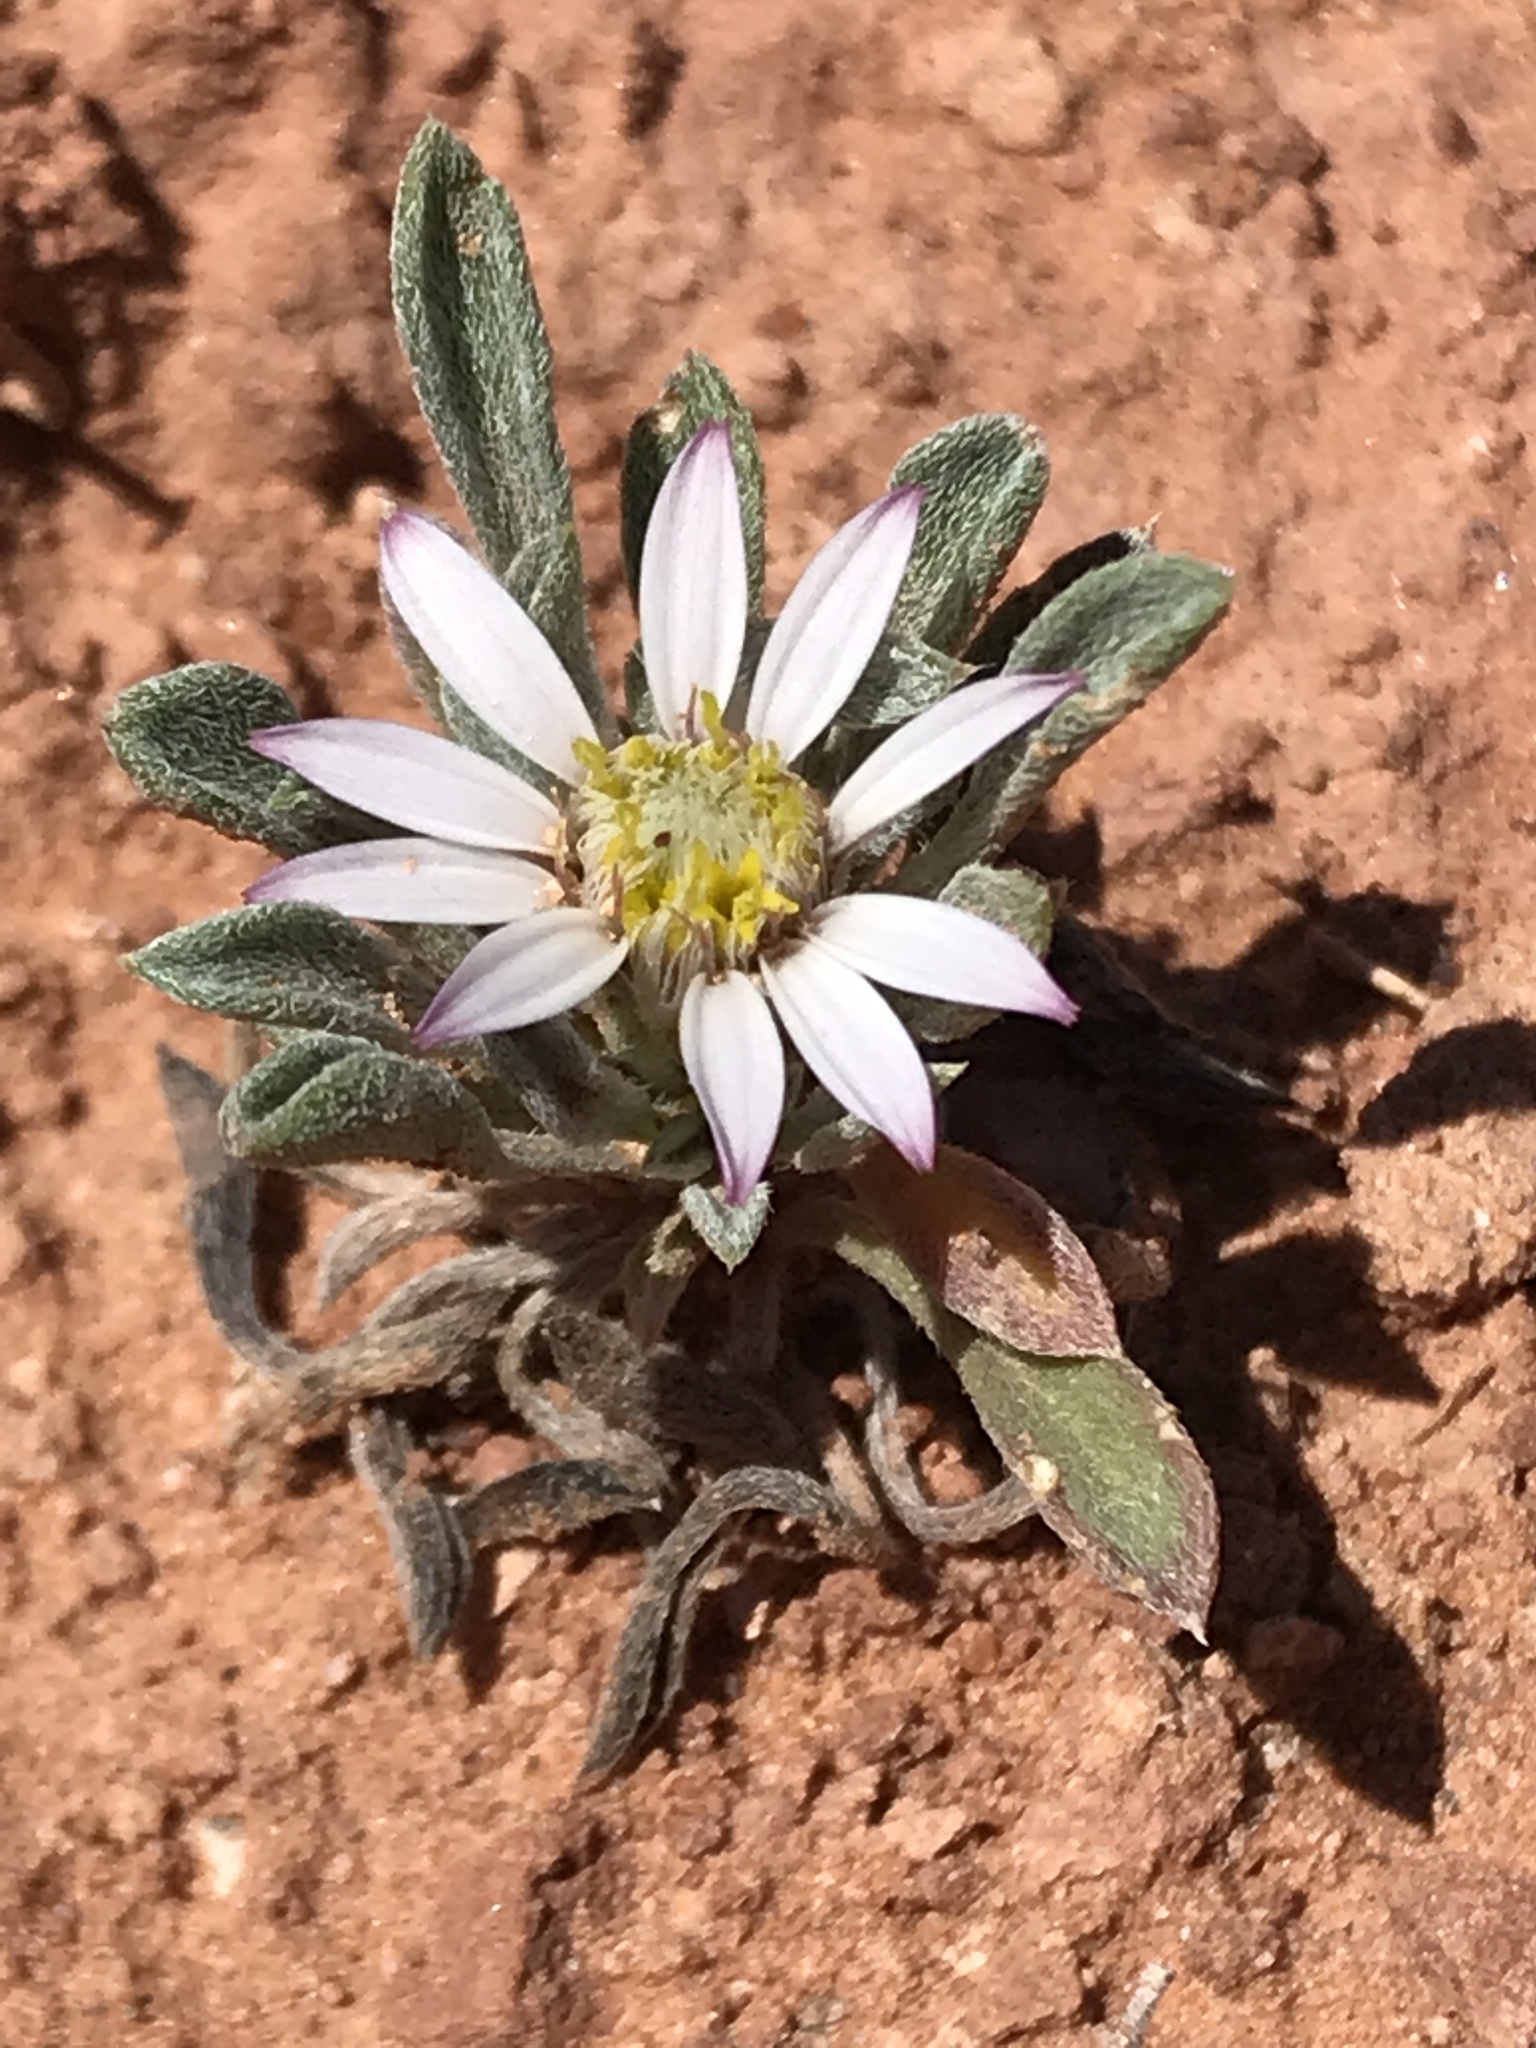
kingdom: Plantae
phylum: Tracheophyta
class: Magnoliopsida
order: Asterales
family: Asteraceae
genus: Townsendia
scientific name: Townsendia incana
